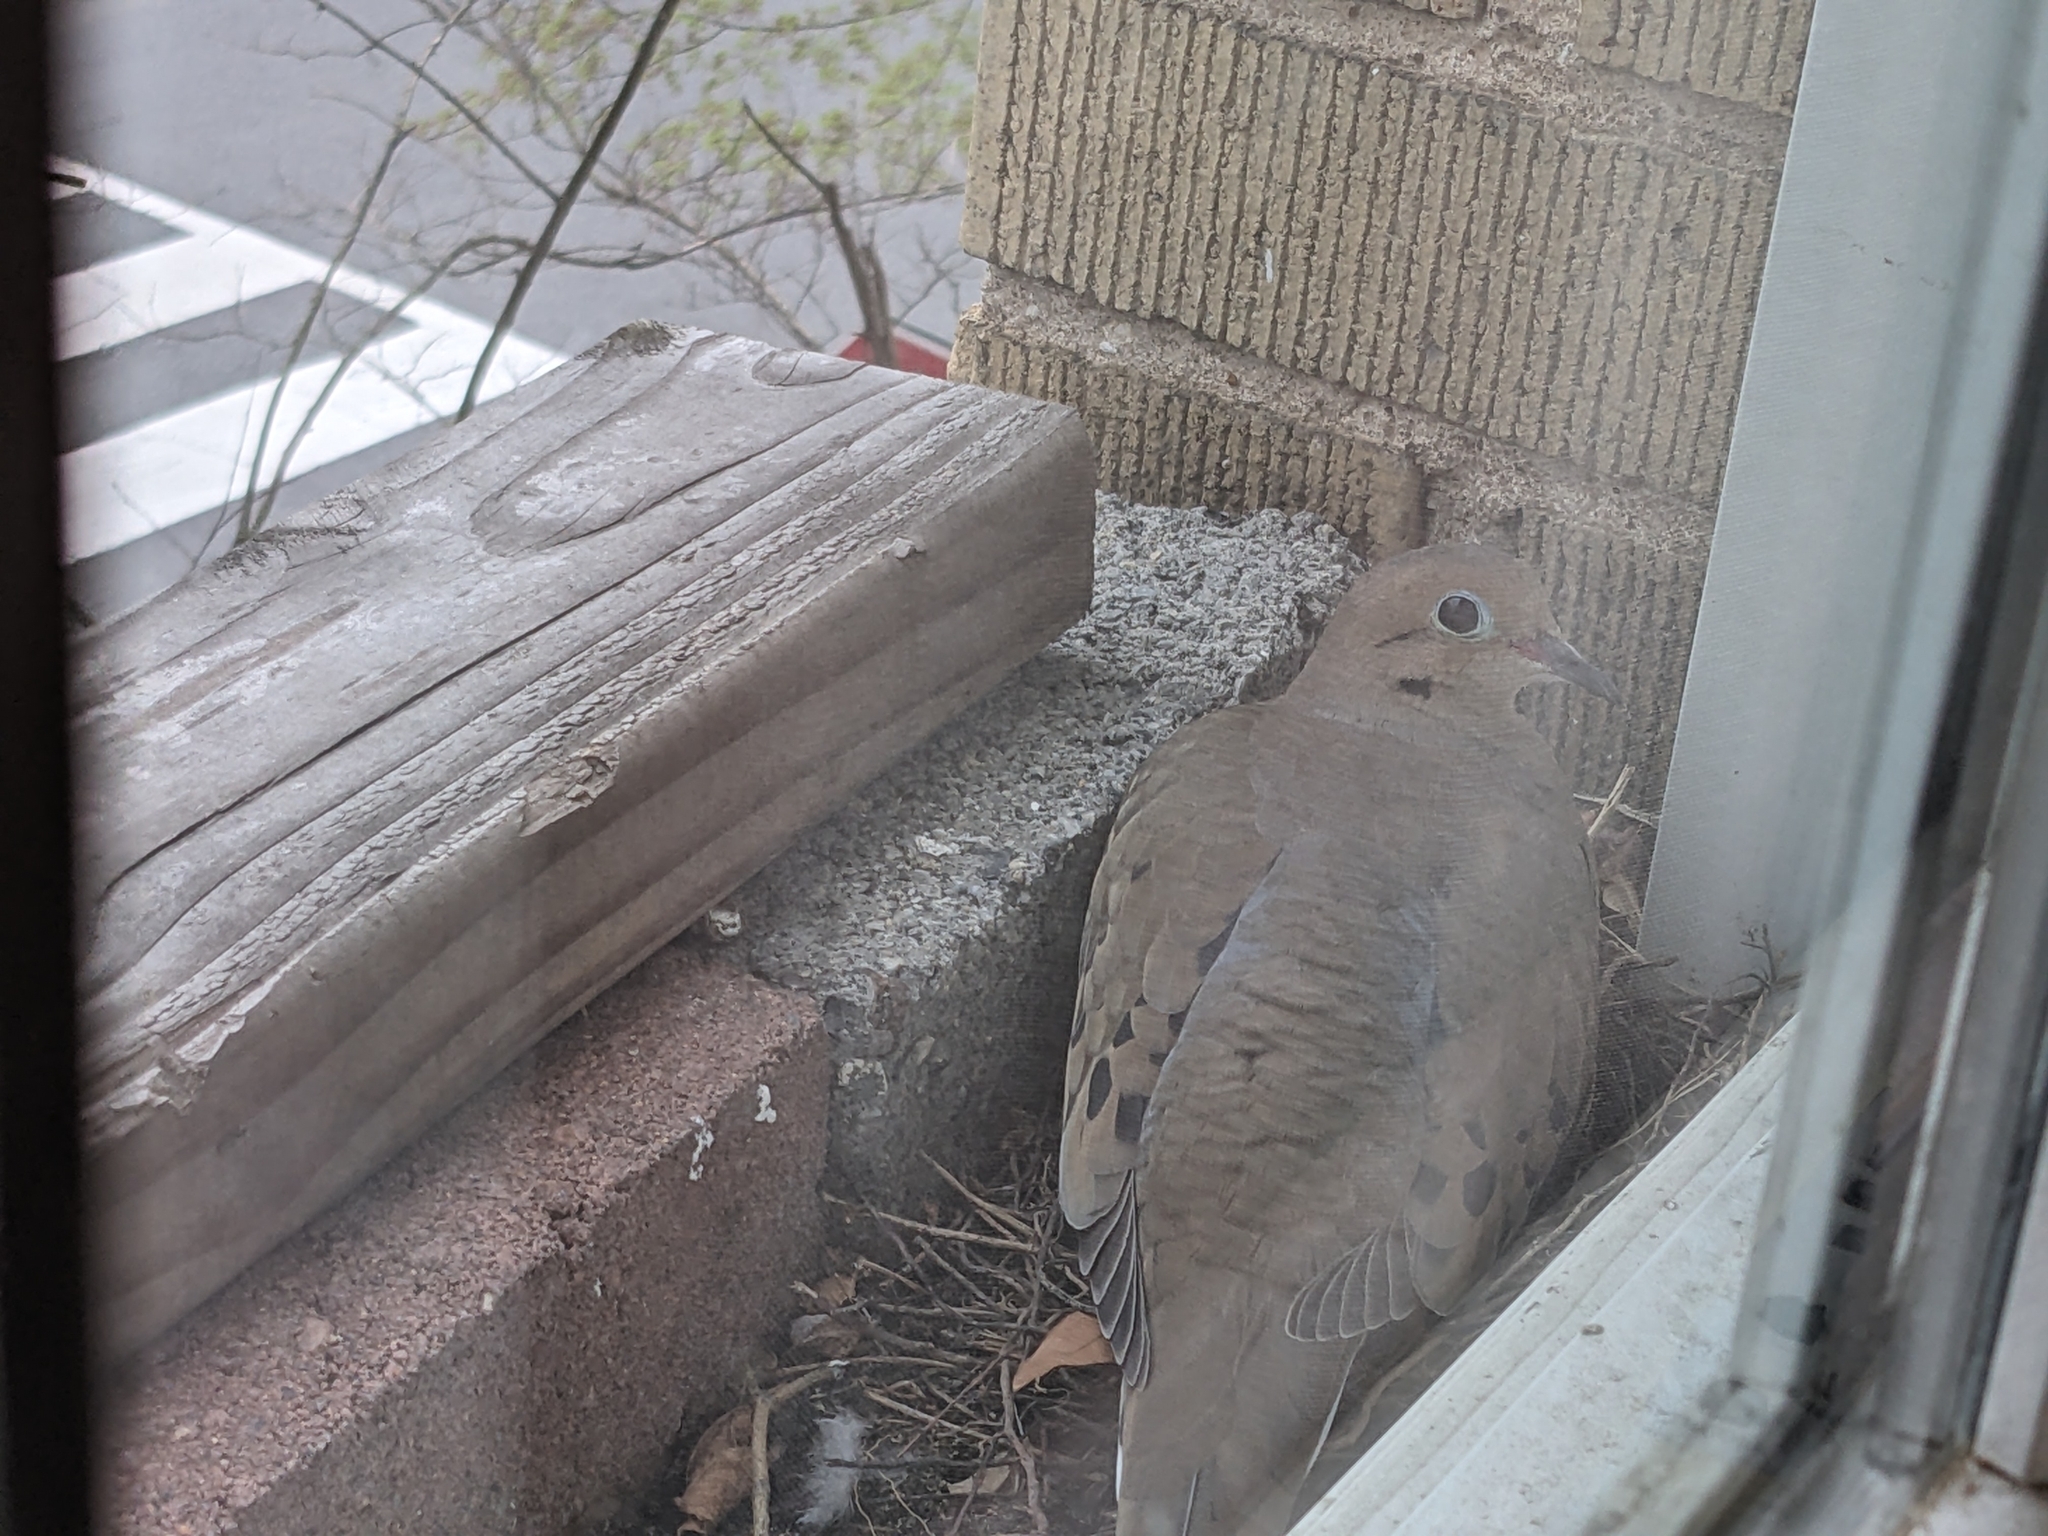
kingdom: Animalia
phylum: Chordata
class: Aves
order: Columbiformes
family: Columbidae
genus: Zenaida
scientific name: Zenaida macroura
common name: Mourning dove
